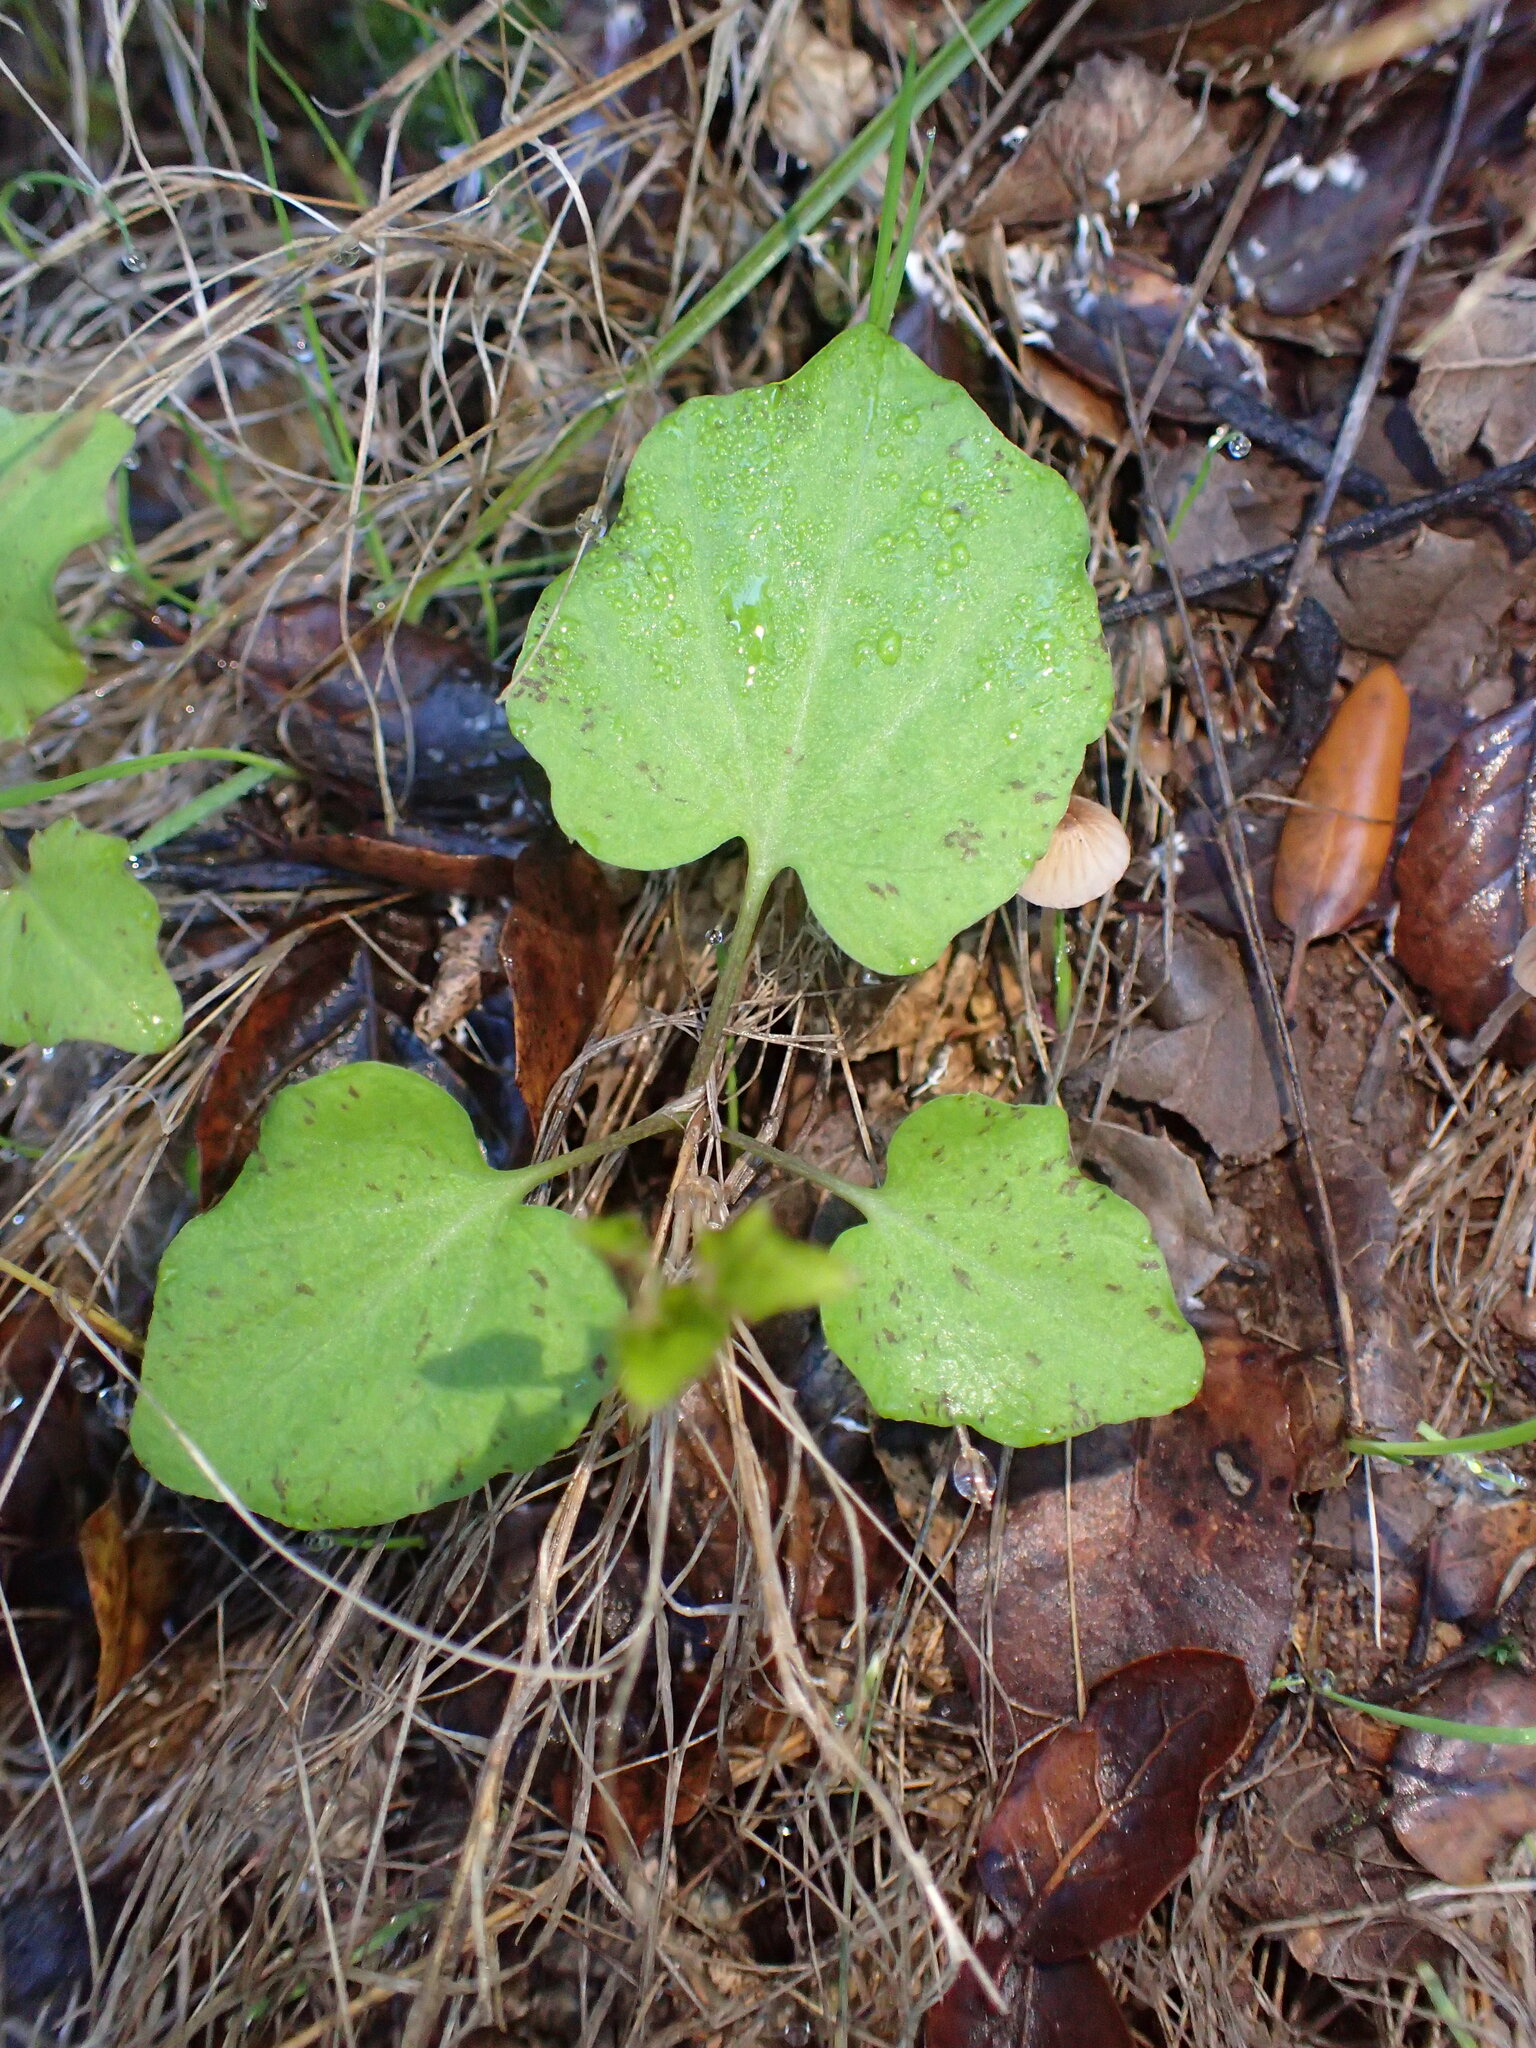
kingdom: Plantae
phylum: Tracheophyta
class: Magnoliopsida
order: Brassicales
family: Brassicaceae
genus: Cardamine
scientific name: Cardamine californica
